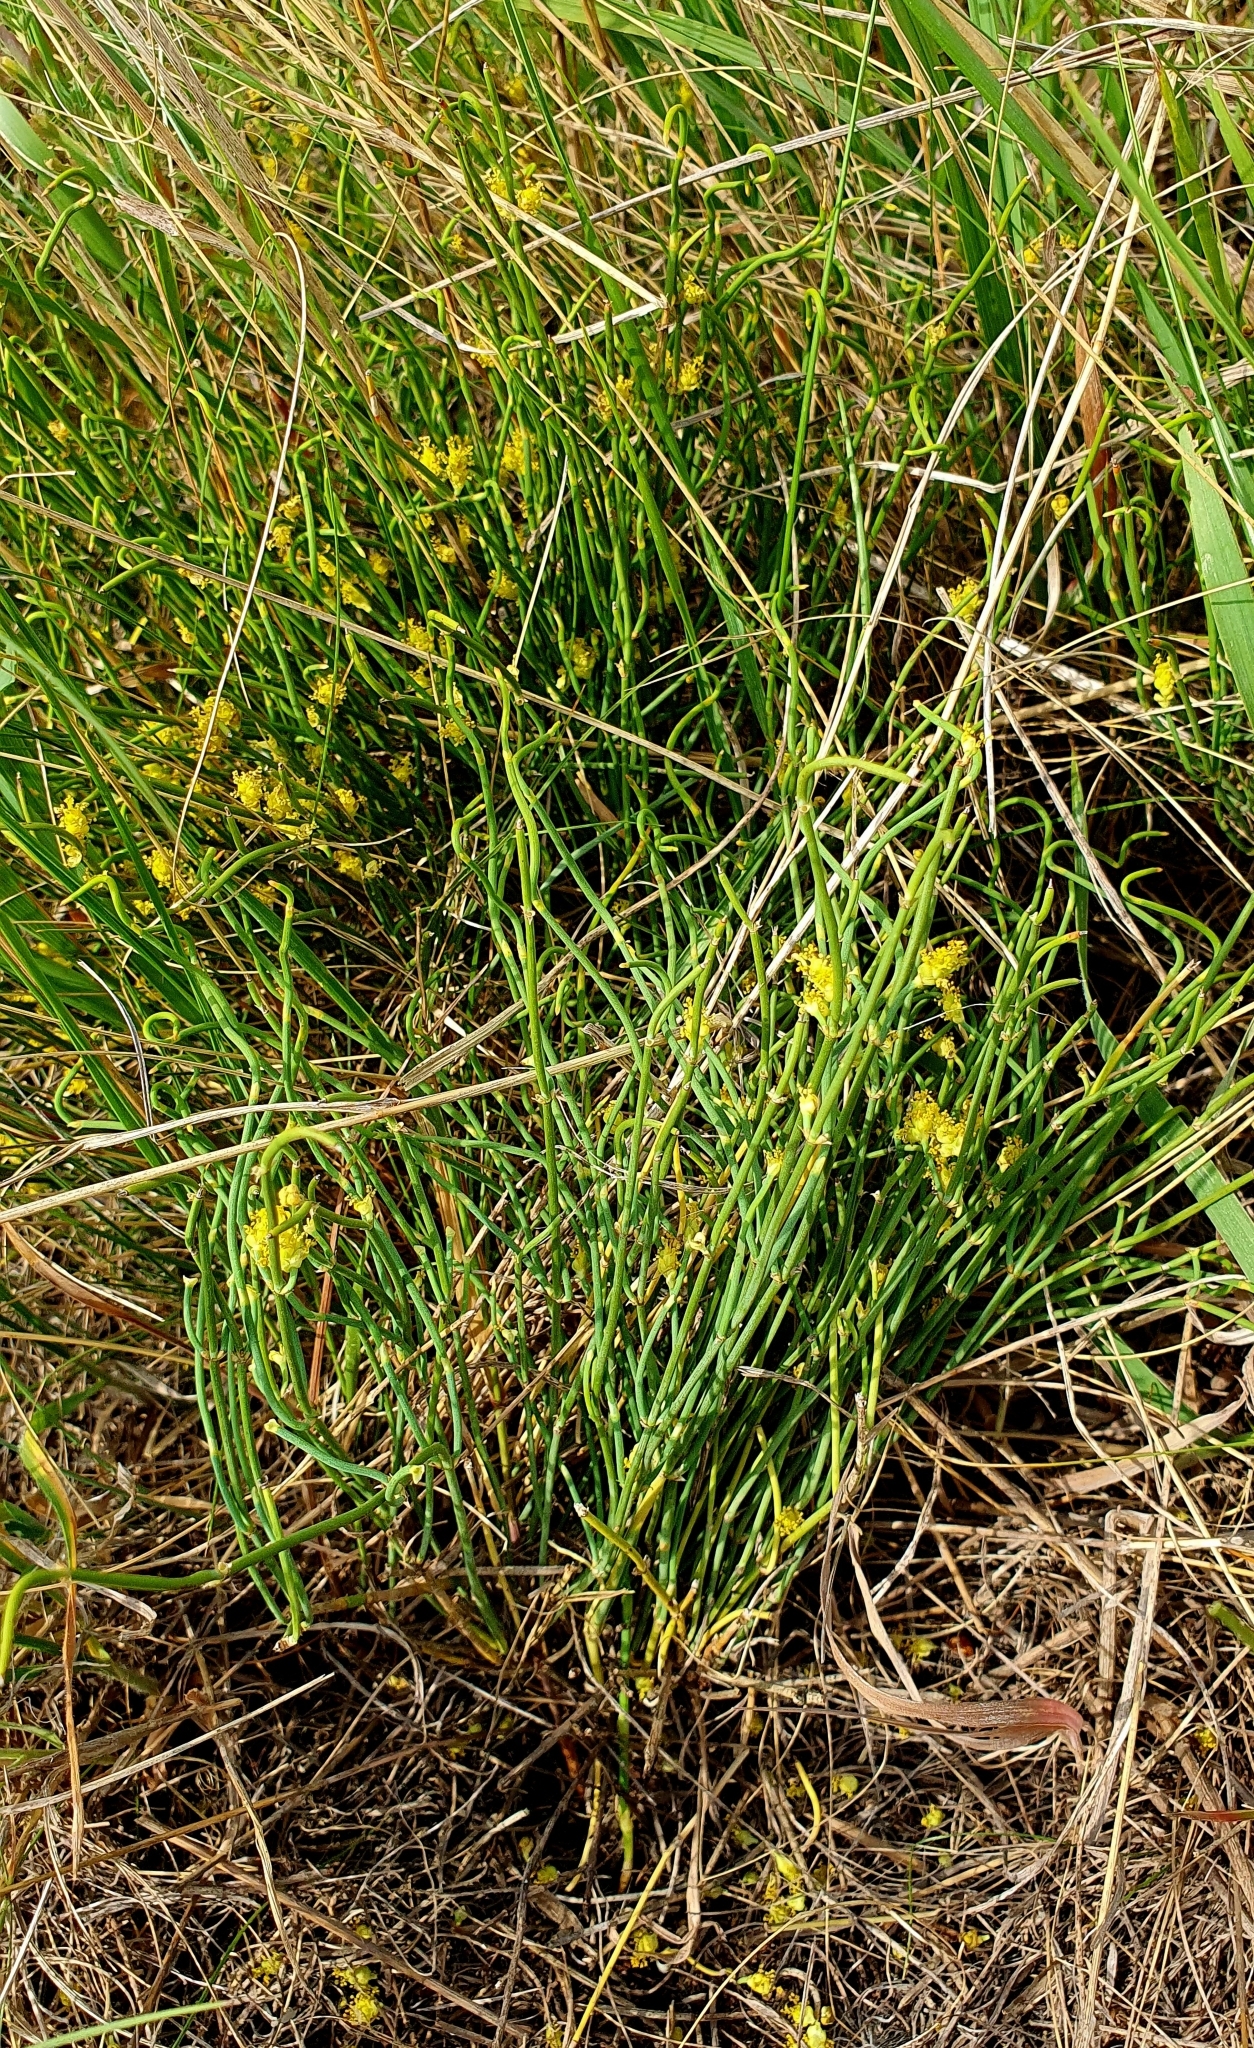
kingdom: Plantae
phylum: Tracheophyta
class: Gnetopsida
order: Ephedrales
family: Ephedraceae
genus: Ephedra
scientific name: Ephedra distachya
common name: Sea grape
